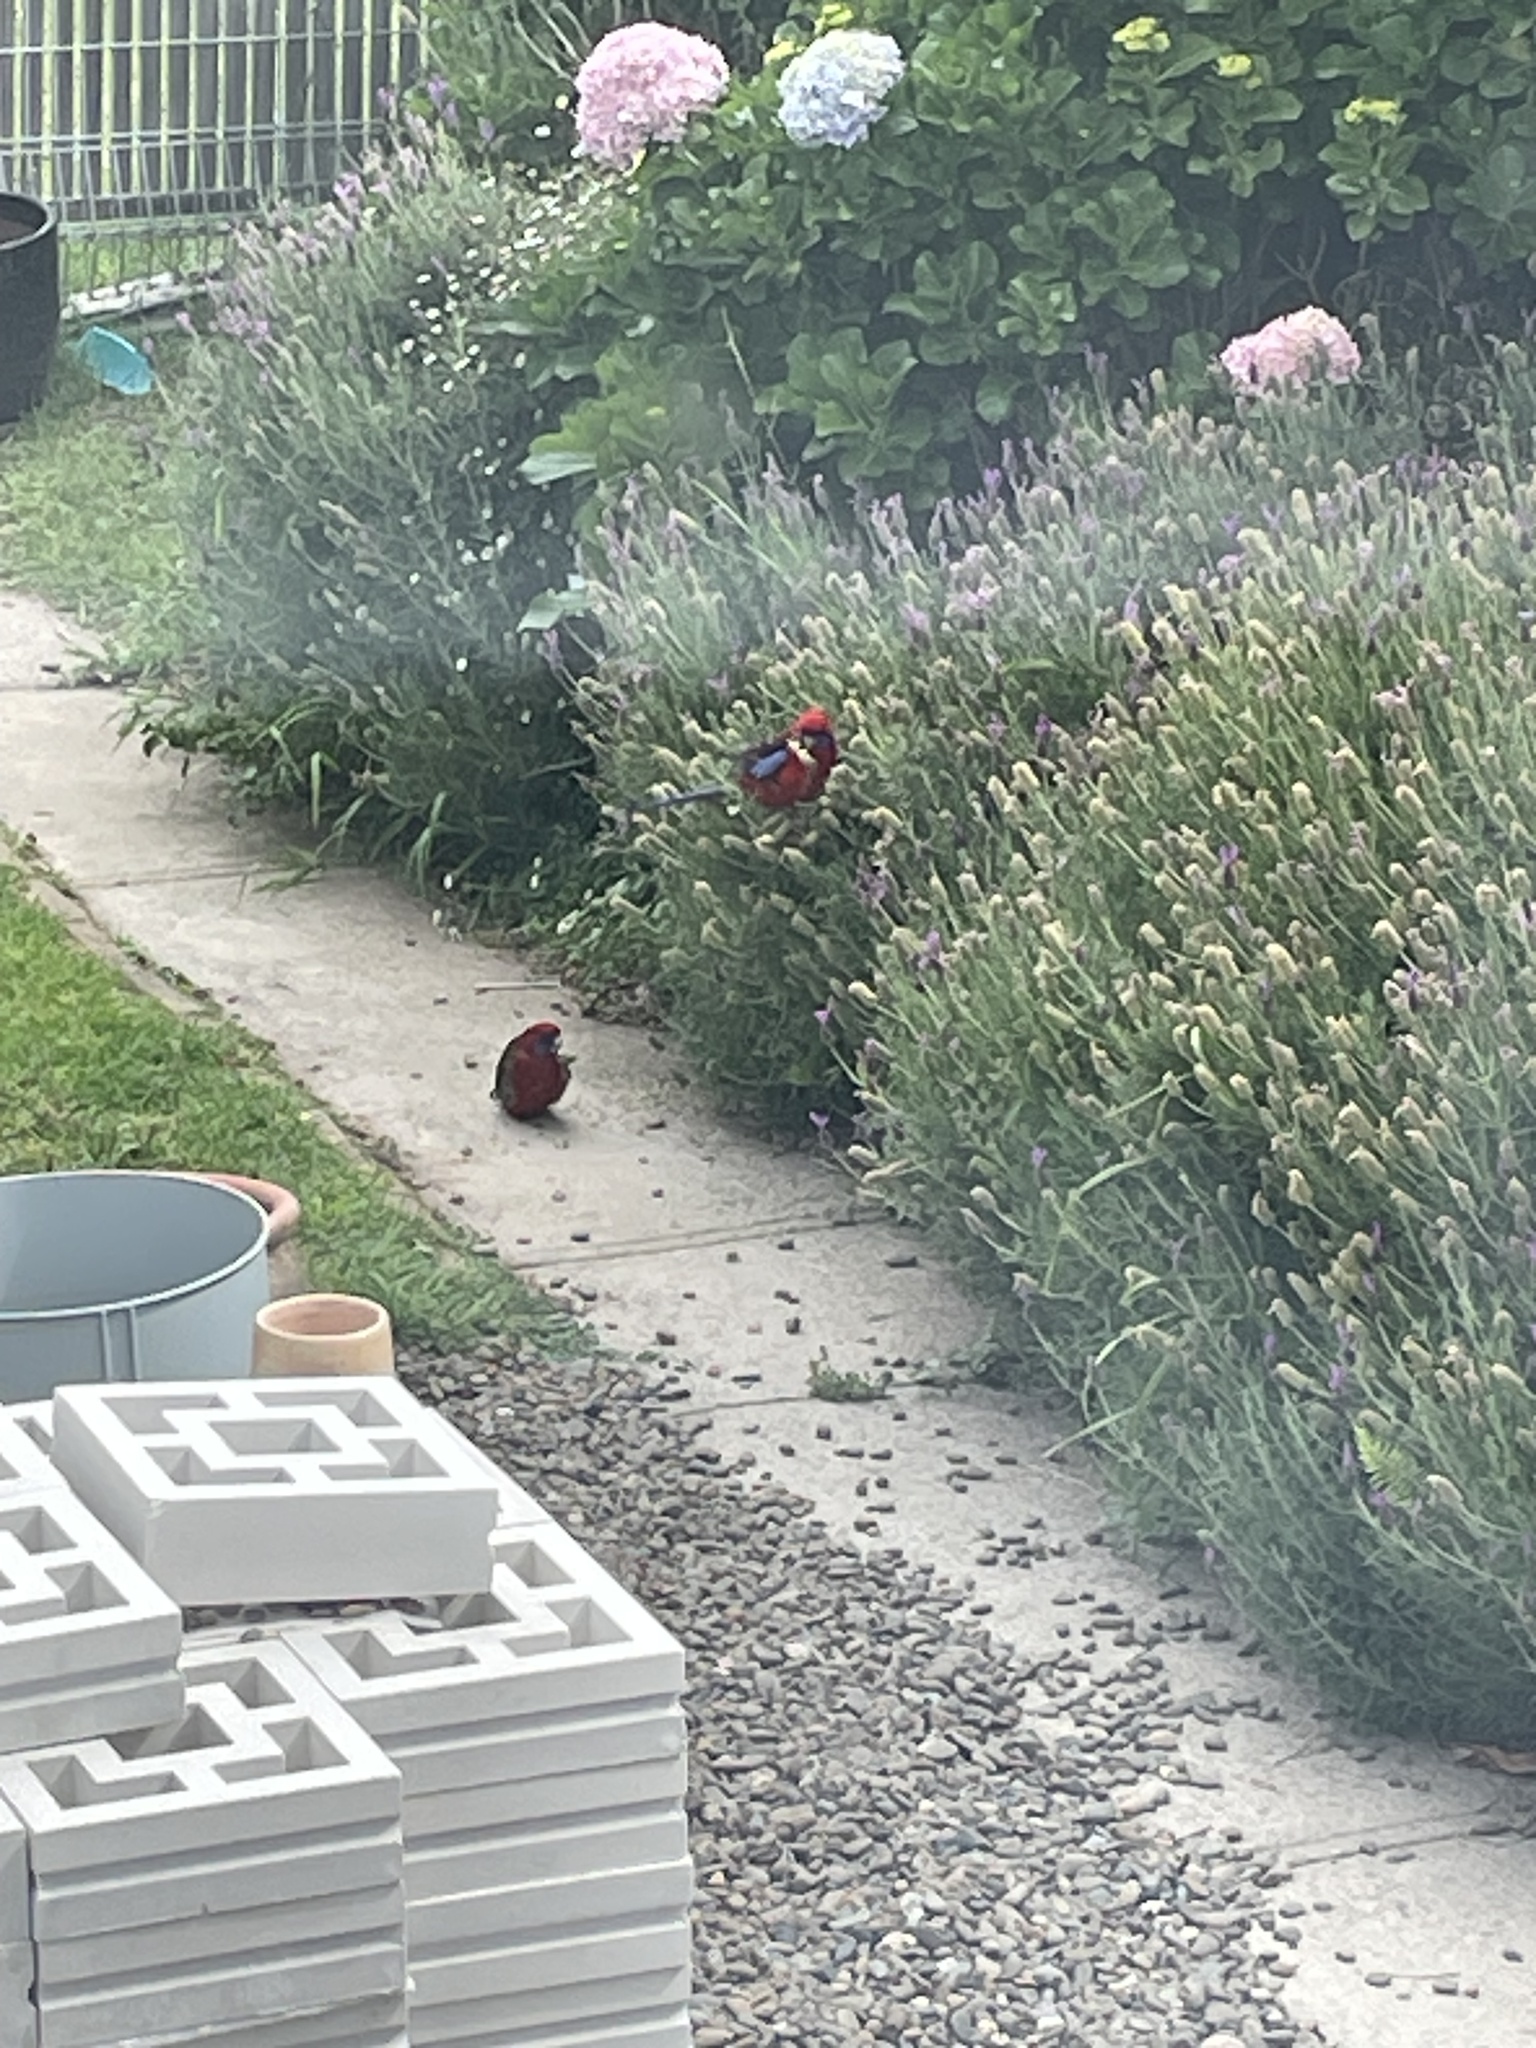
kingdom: Animalia
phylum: Chordata
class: Aves
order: Psittaciformes
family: Psittacidae
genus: Platycercus
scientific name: Platycercus elegans
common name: Crimson rosella
